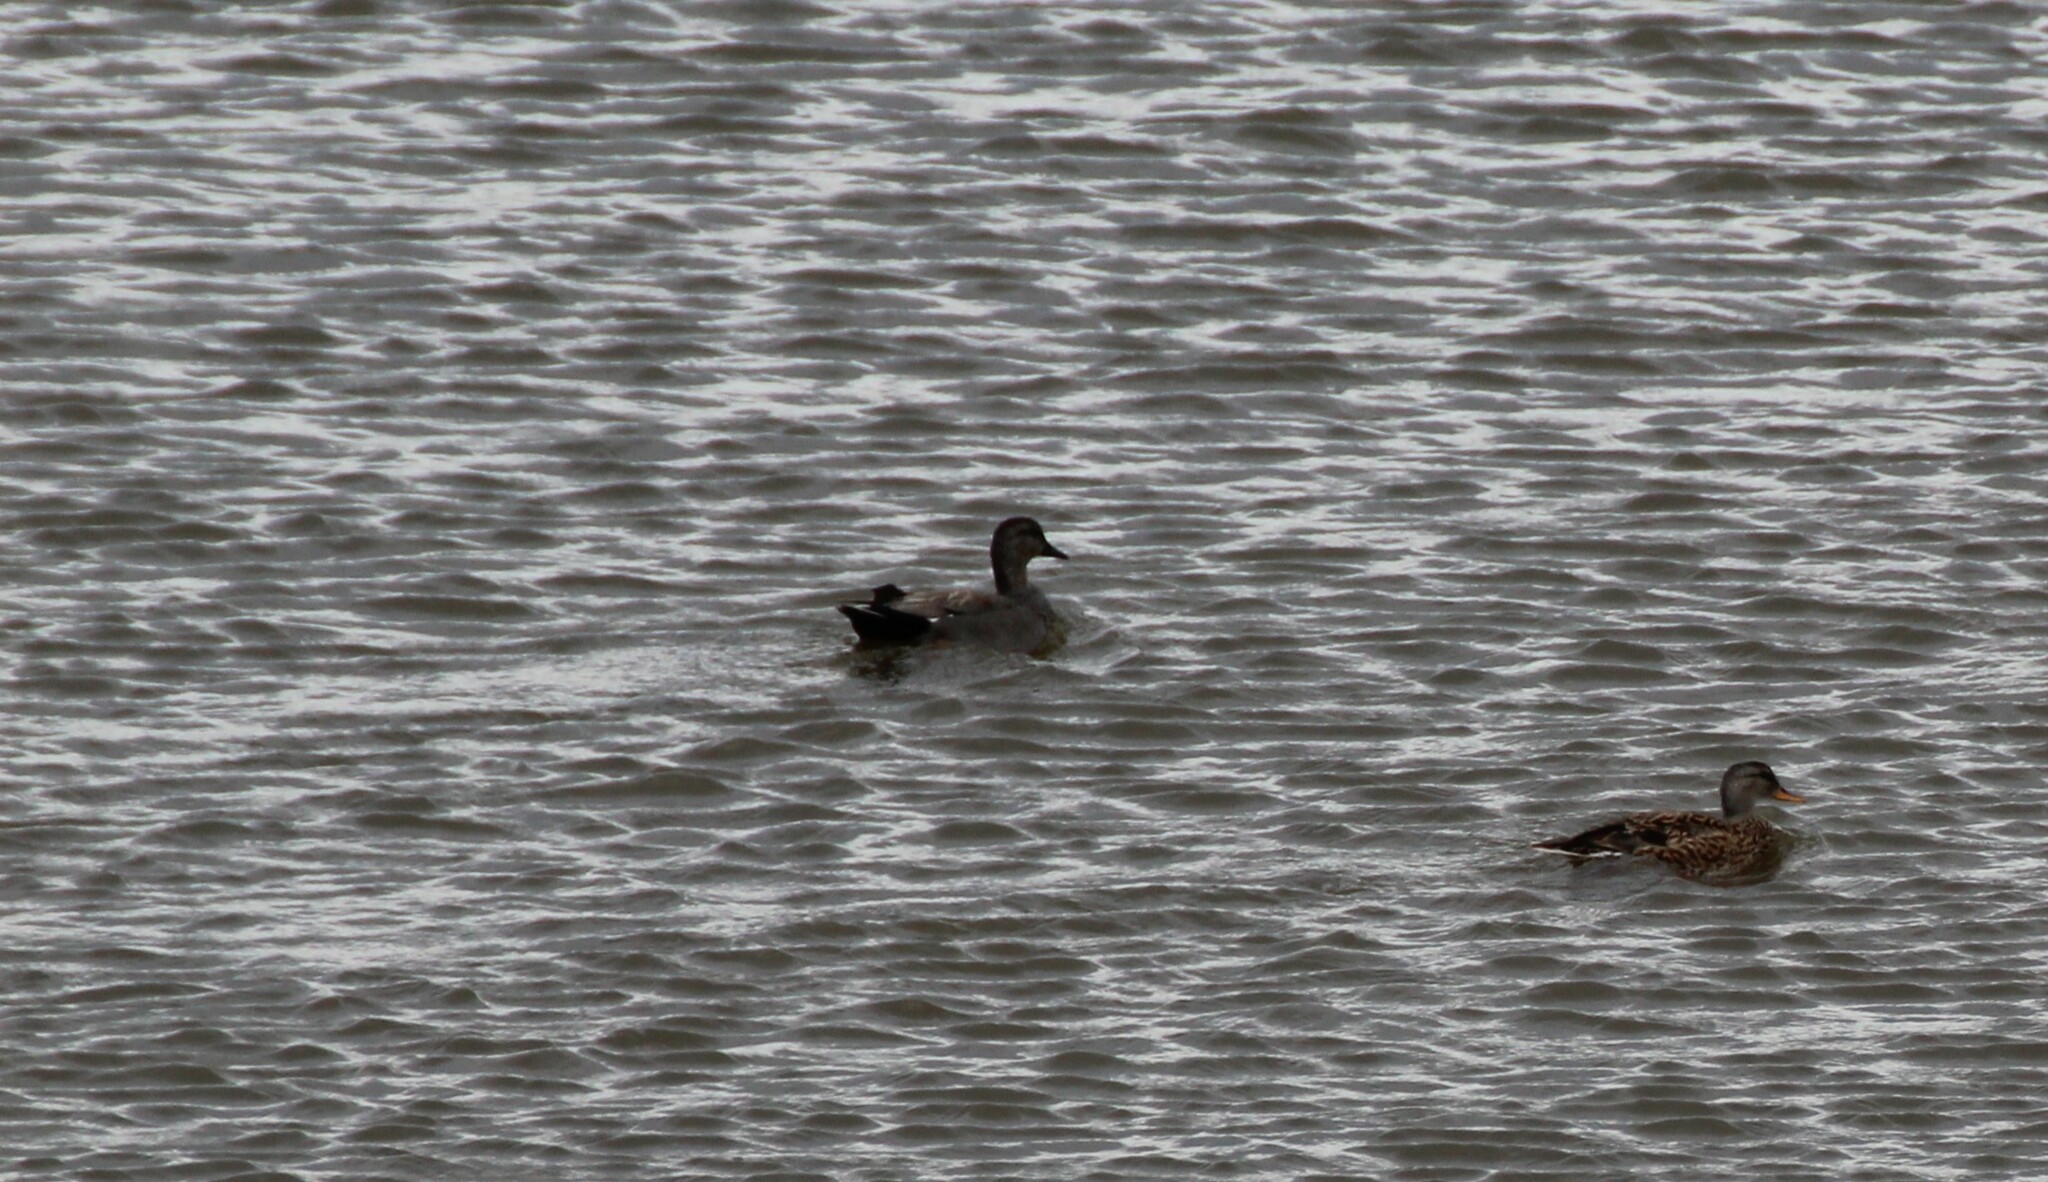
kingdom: Animalia
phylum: Chordata
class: Aves
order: Anseriformes
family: Anatidae
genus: Mareca
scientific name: Mareca strepera
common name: Gadwall
